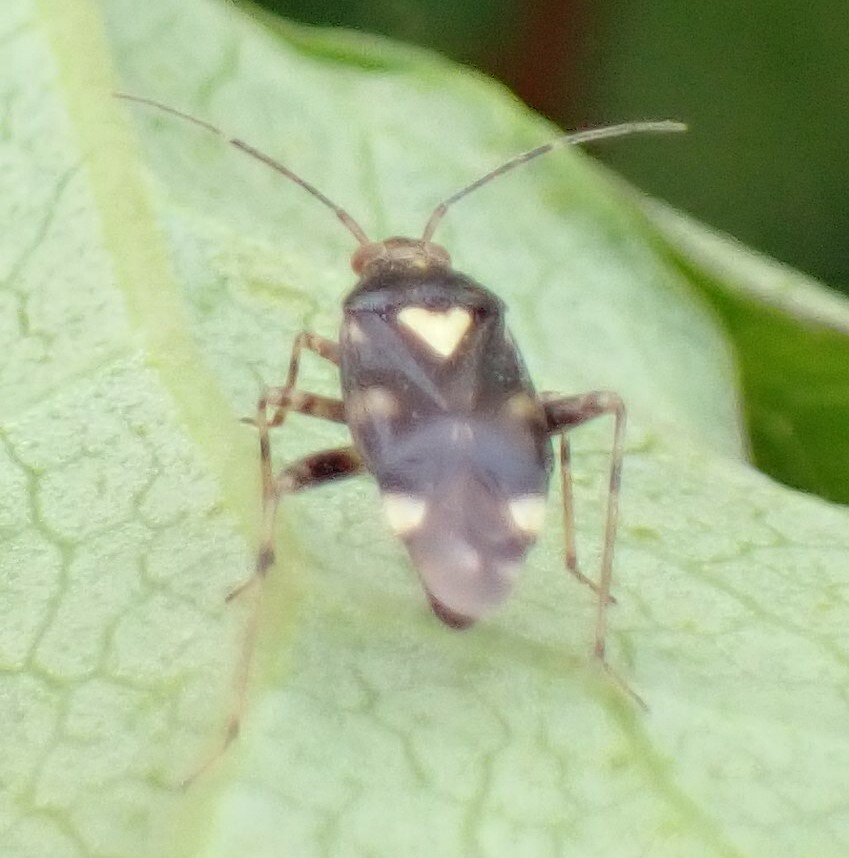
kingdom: Animalia
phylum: Arthropoda
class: Insecta
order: Hemiptera
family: Miridae
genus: Liocoris
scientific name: Liocoris tripustulatus
